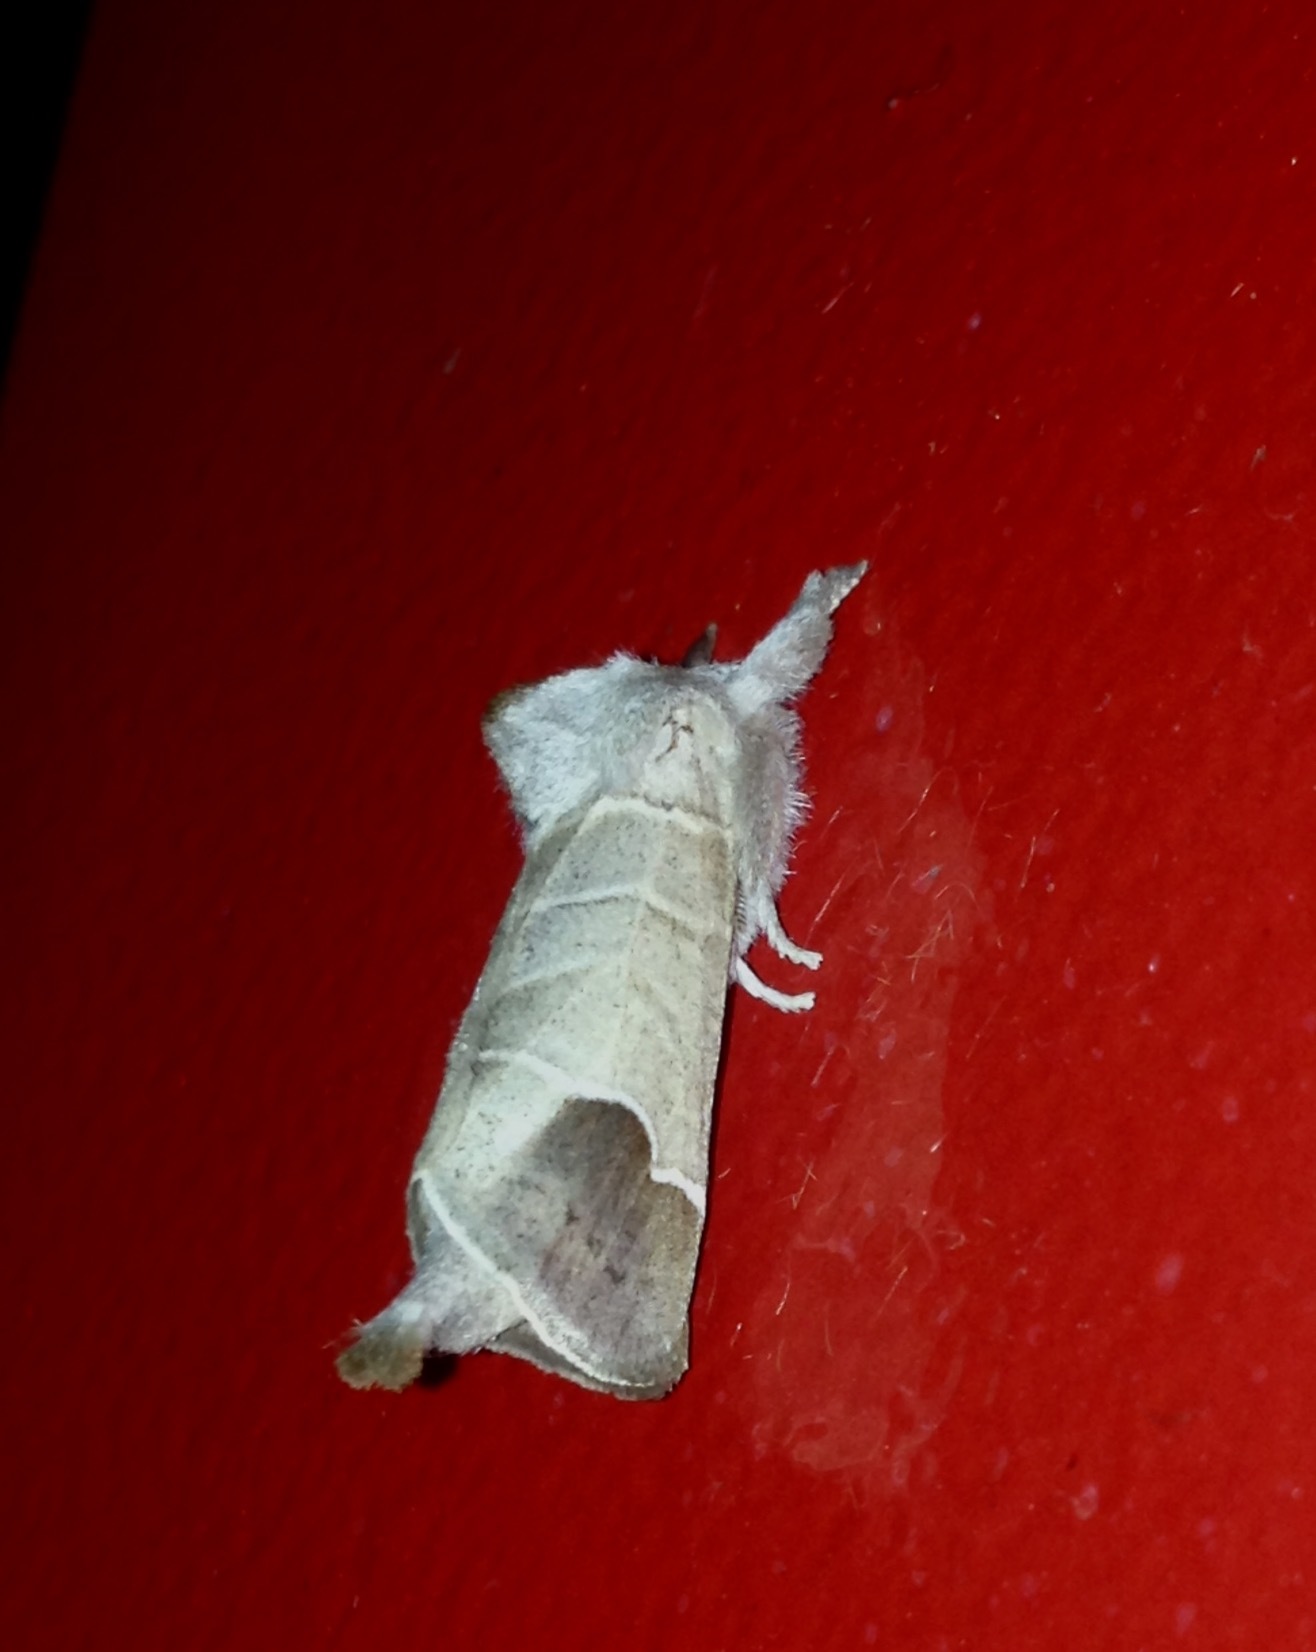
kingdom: Animalia
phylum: Arthropoda
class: Insecta
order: Lepidoptera
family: Notodontidae
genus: Clostera
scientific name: Clostera curtula
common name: Chocolate-tip
